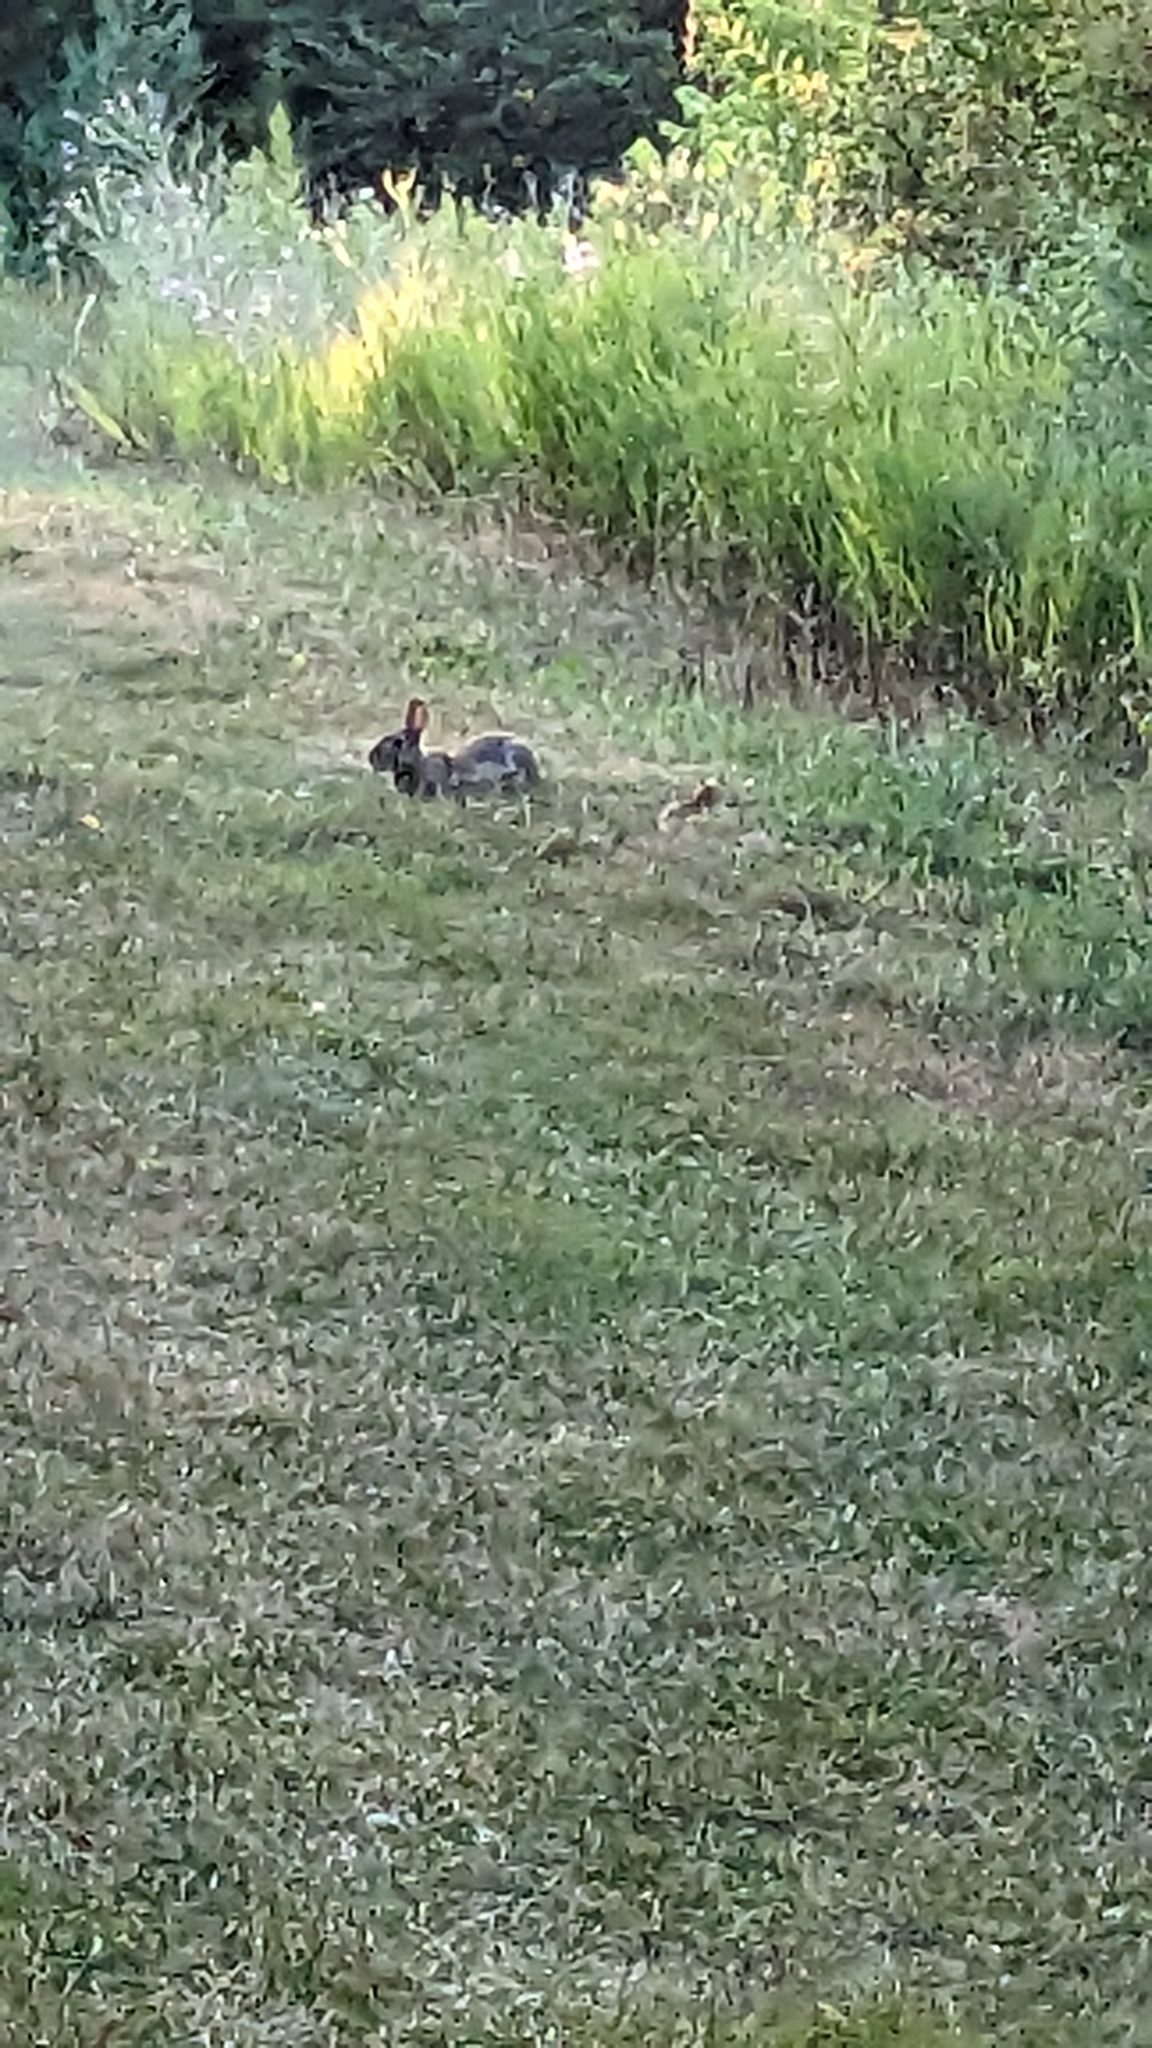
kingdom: Animalia
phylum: Chordata
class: Mammalia
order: Lagomorpha
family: Leporidae
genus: Sylvilagus
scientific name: Sylvilagus floridanus
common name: Eastern cottontail
